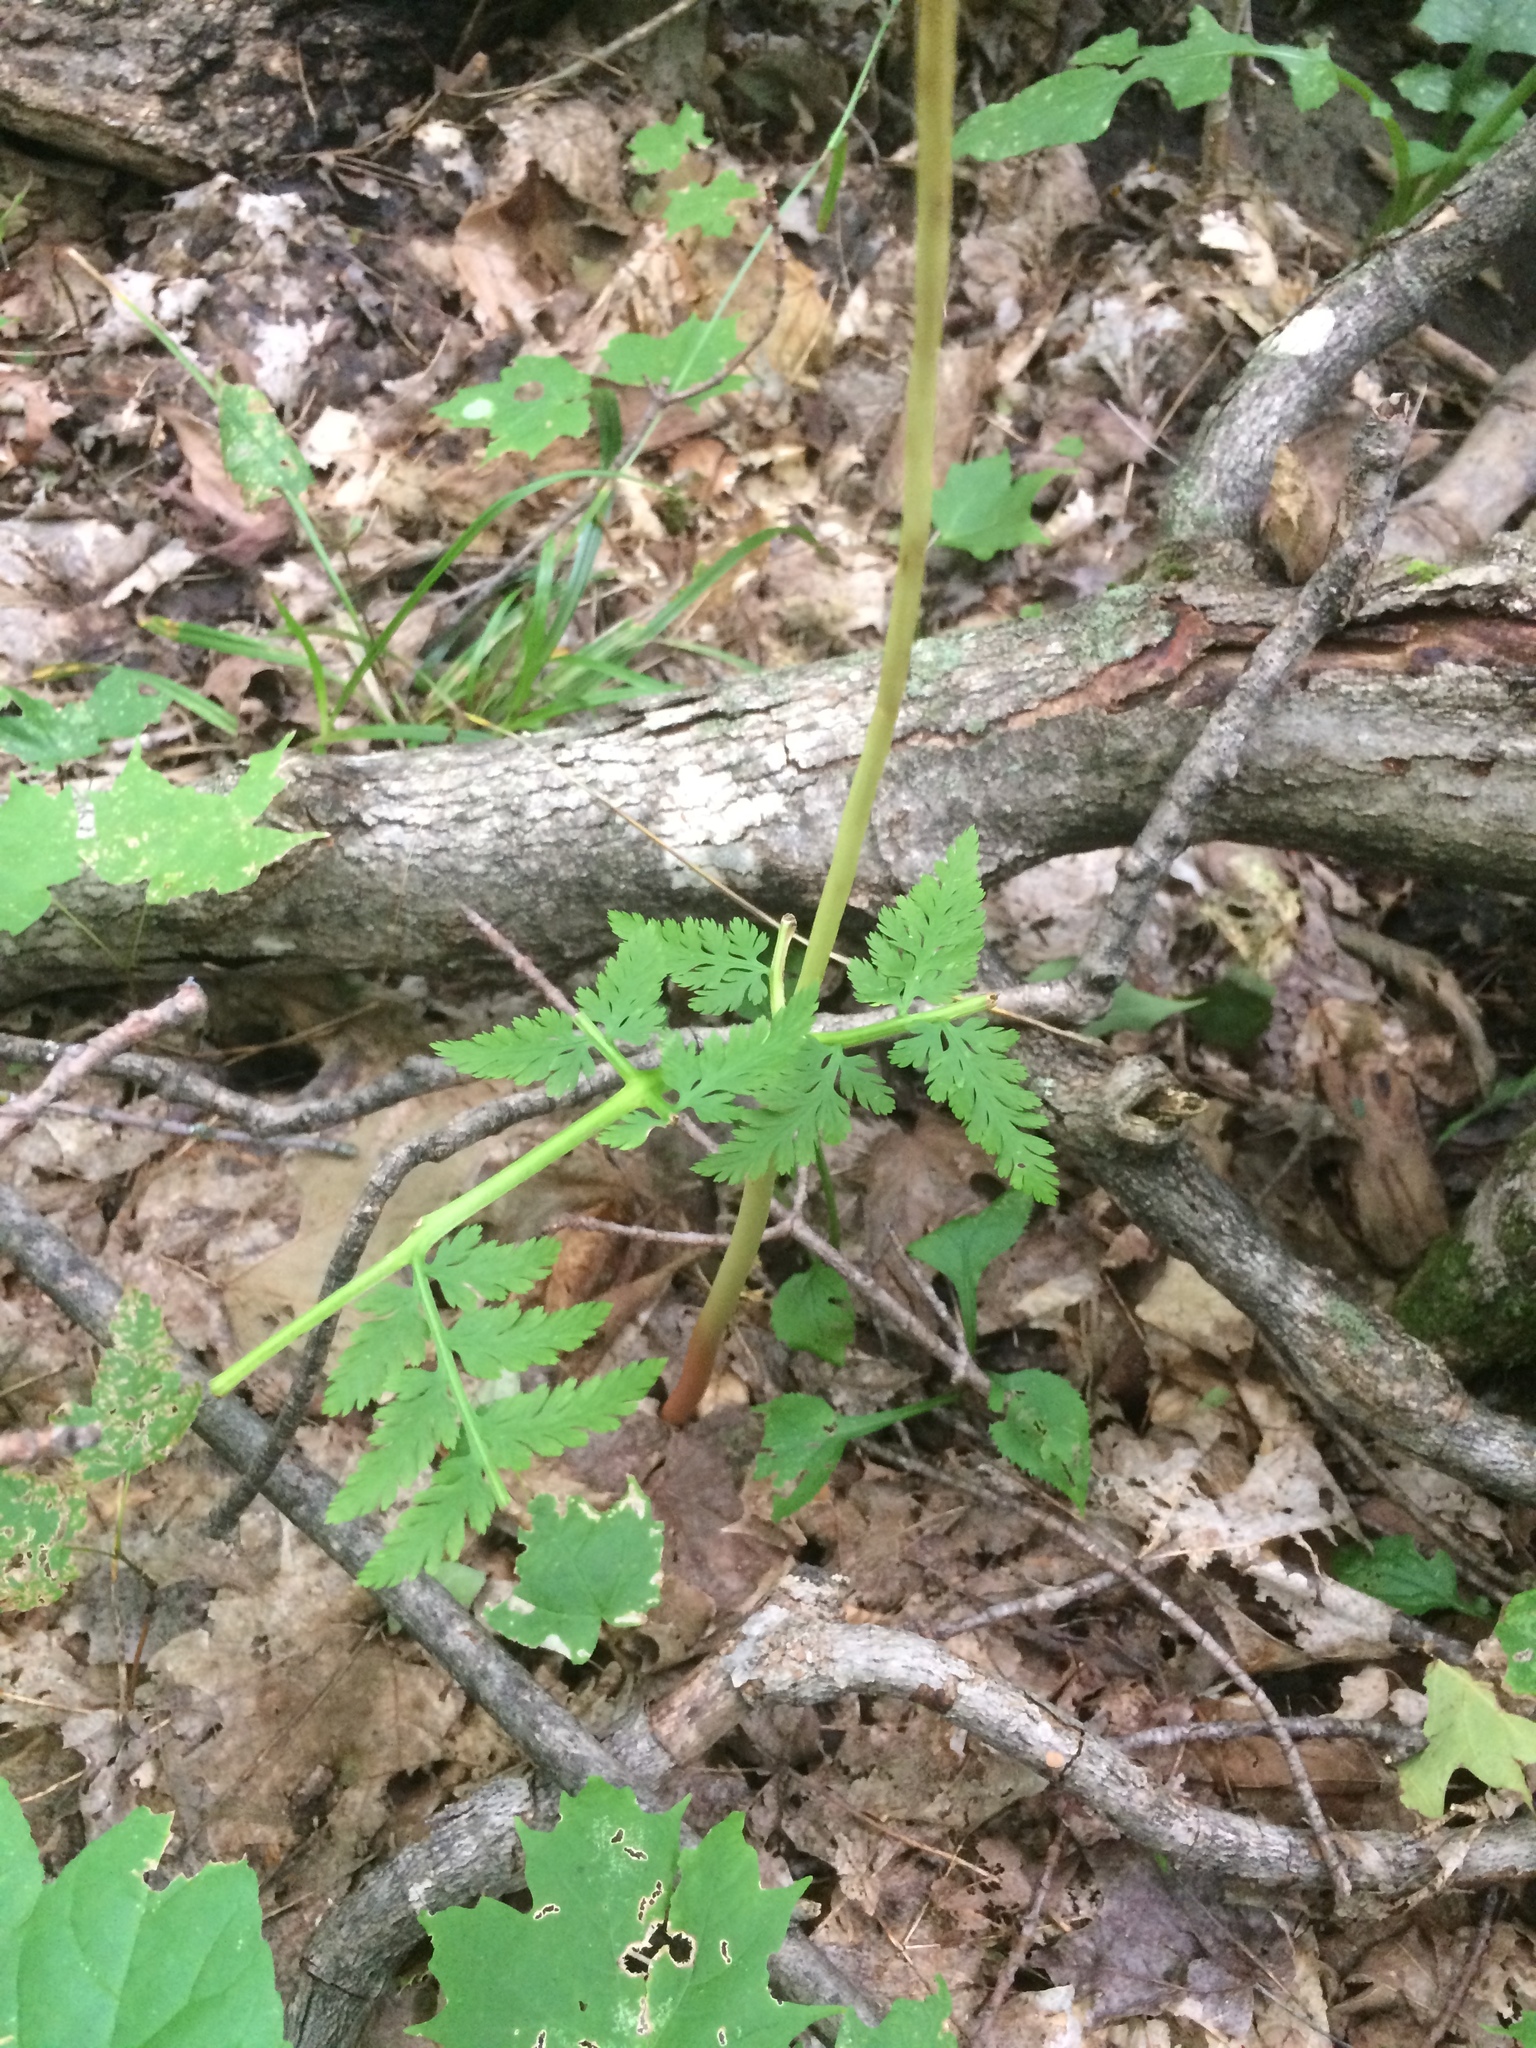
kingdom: Plantae
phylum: Tracheophyta
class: Polypodiopsida
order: Ophioglossales
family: Ophioglossaceae
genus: Botrypus
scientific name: Botrypus virginianus
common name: Common grapefern
